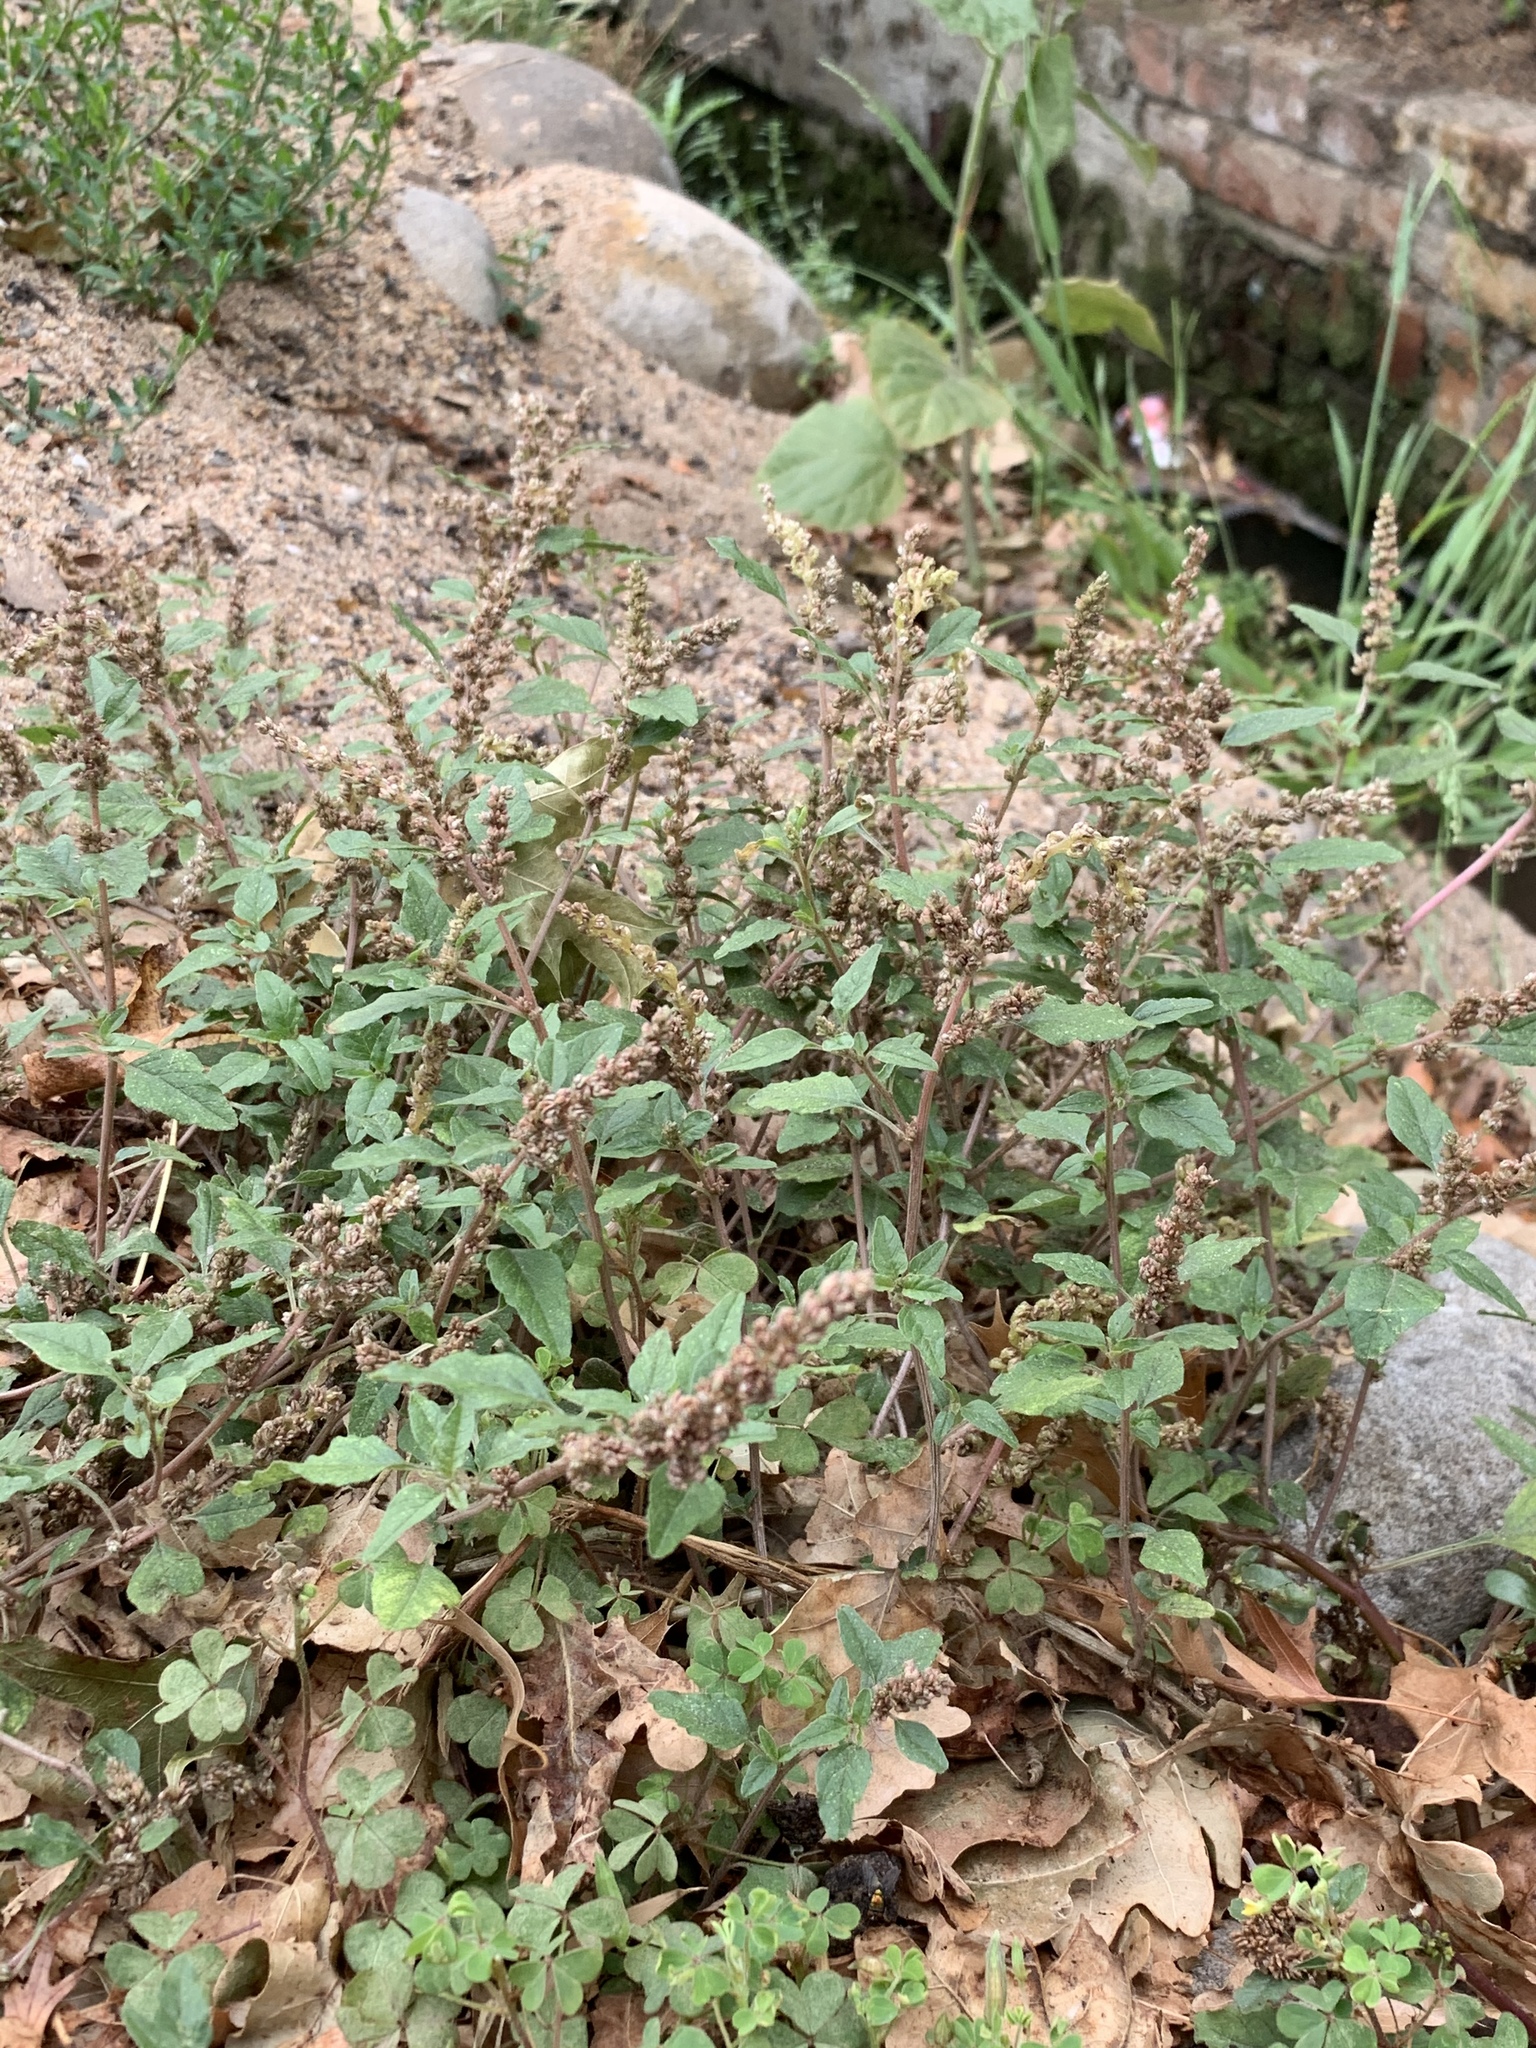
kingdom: Plantae
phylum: Tracheophyta
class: Magnoliopsida
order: Caryophyllales
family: Amaranthaceae
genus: Amaranthus
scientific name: Amaranthus deflexus
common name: Perennial pigweed
